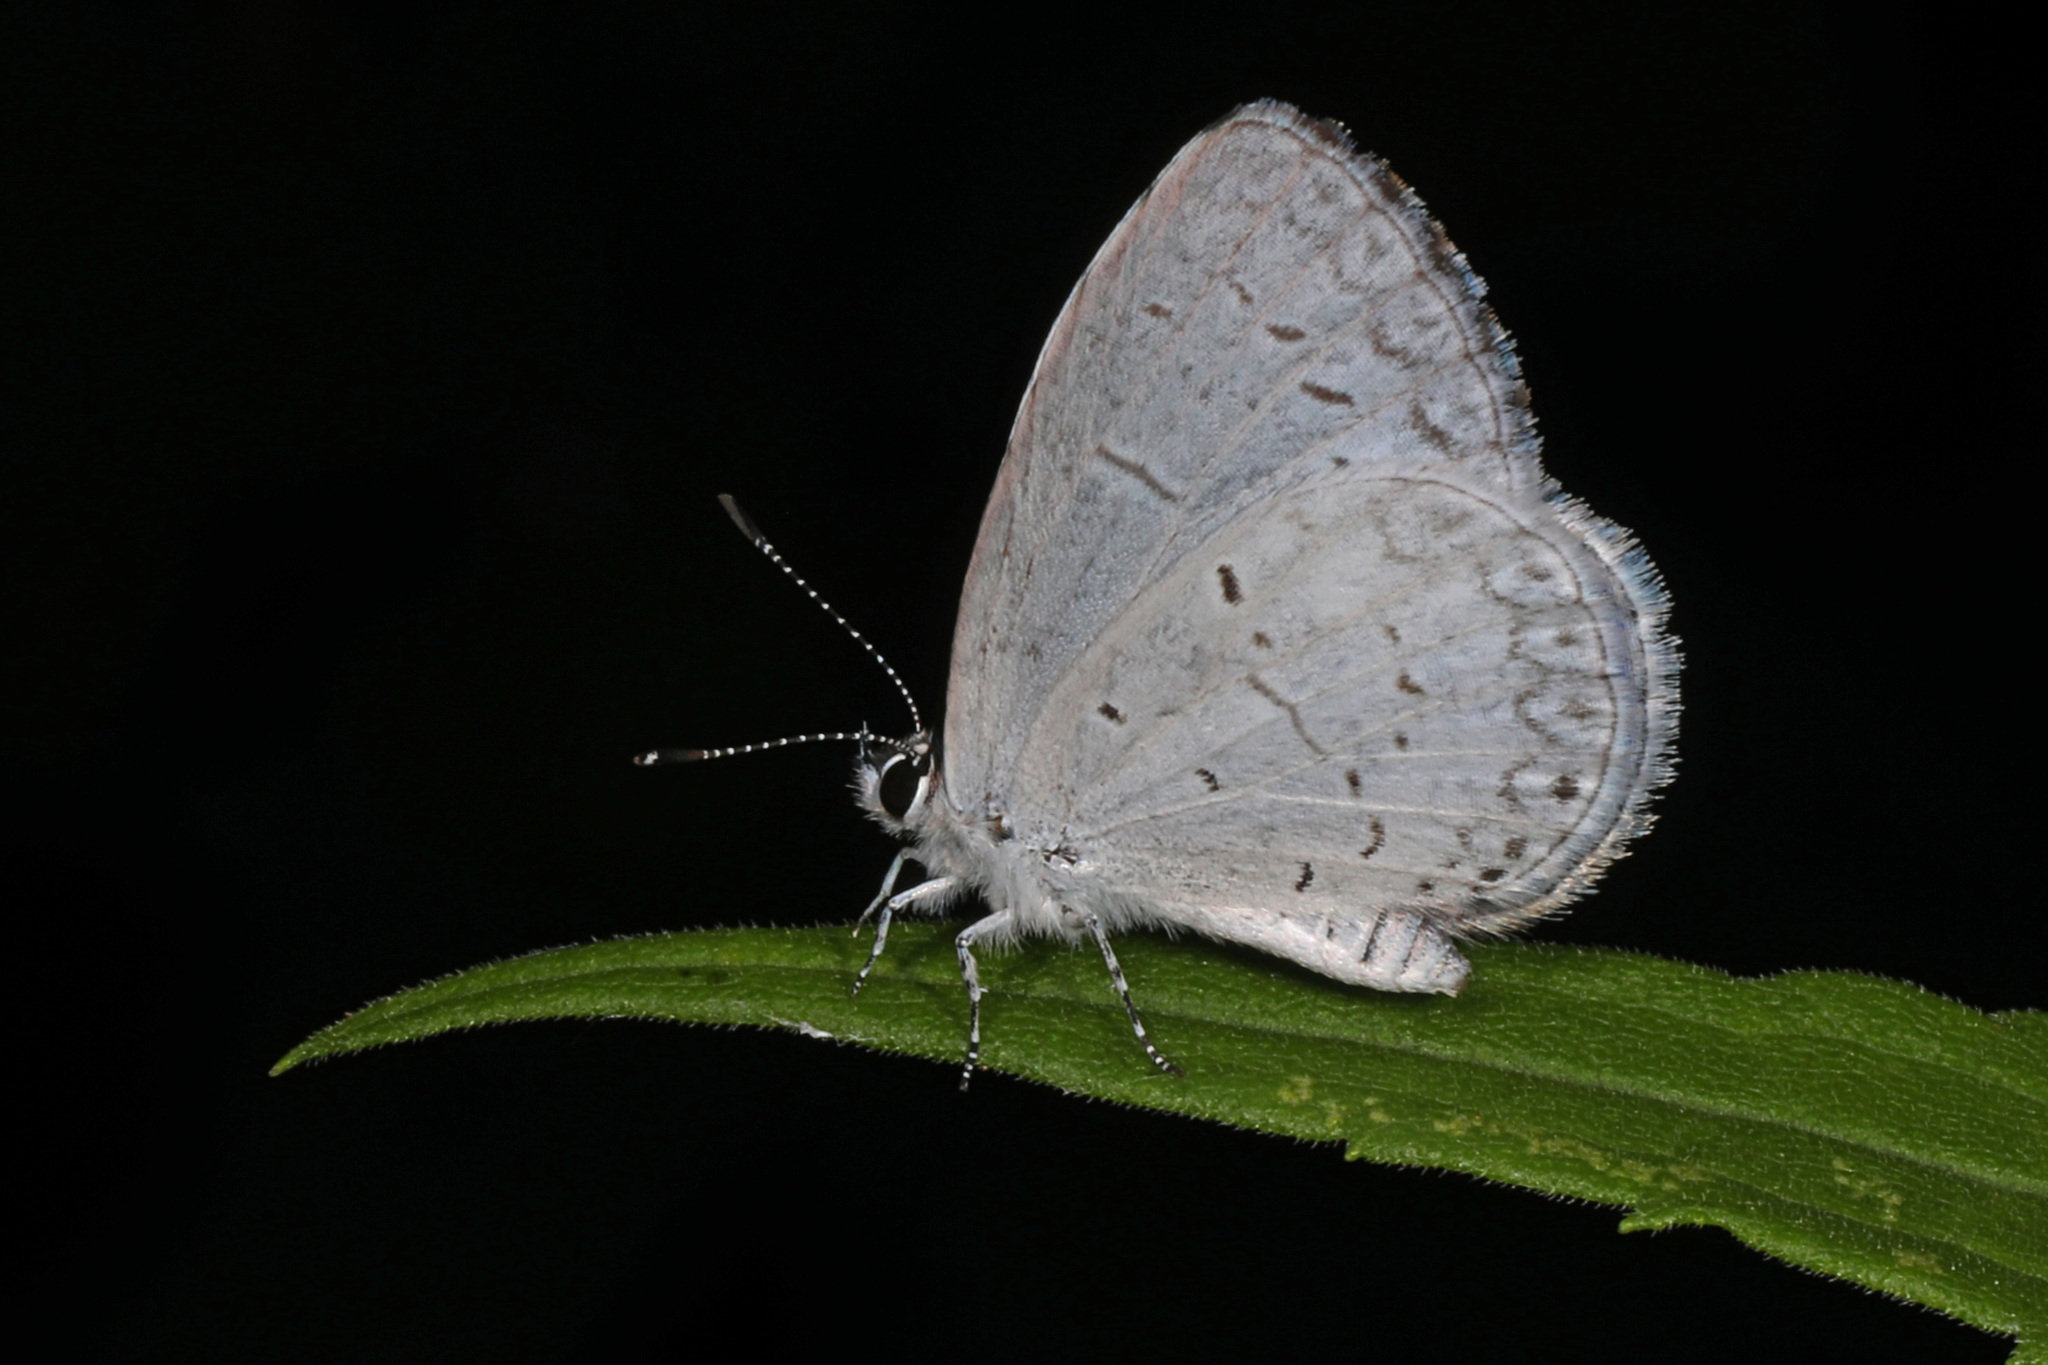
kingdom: Animalia
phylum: Arthropoda
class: Insecta
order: Lepidoptera
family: Lycaenidae
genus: Cyaniris
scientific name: Cyaniris neglecta
